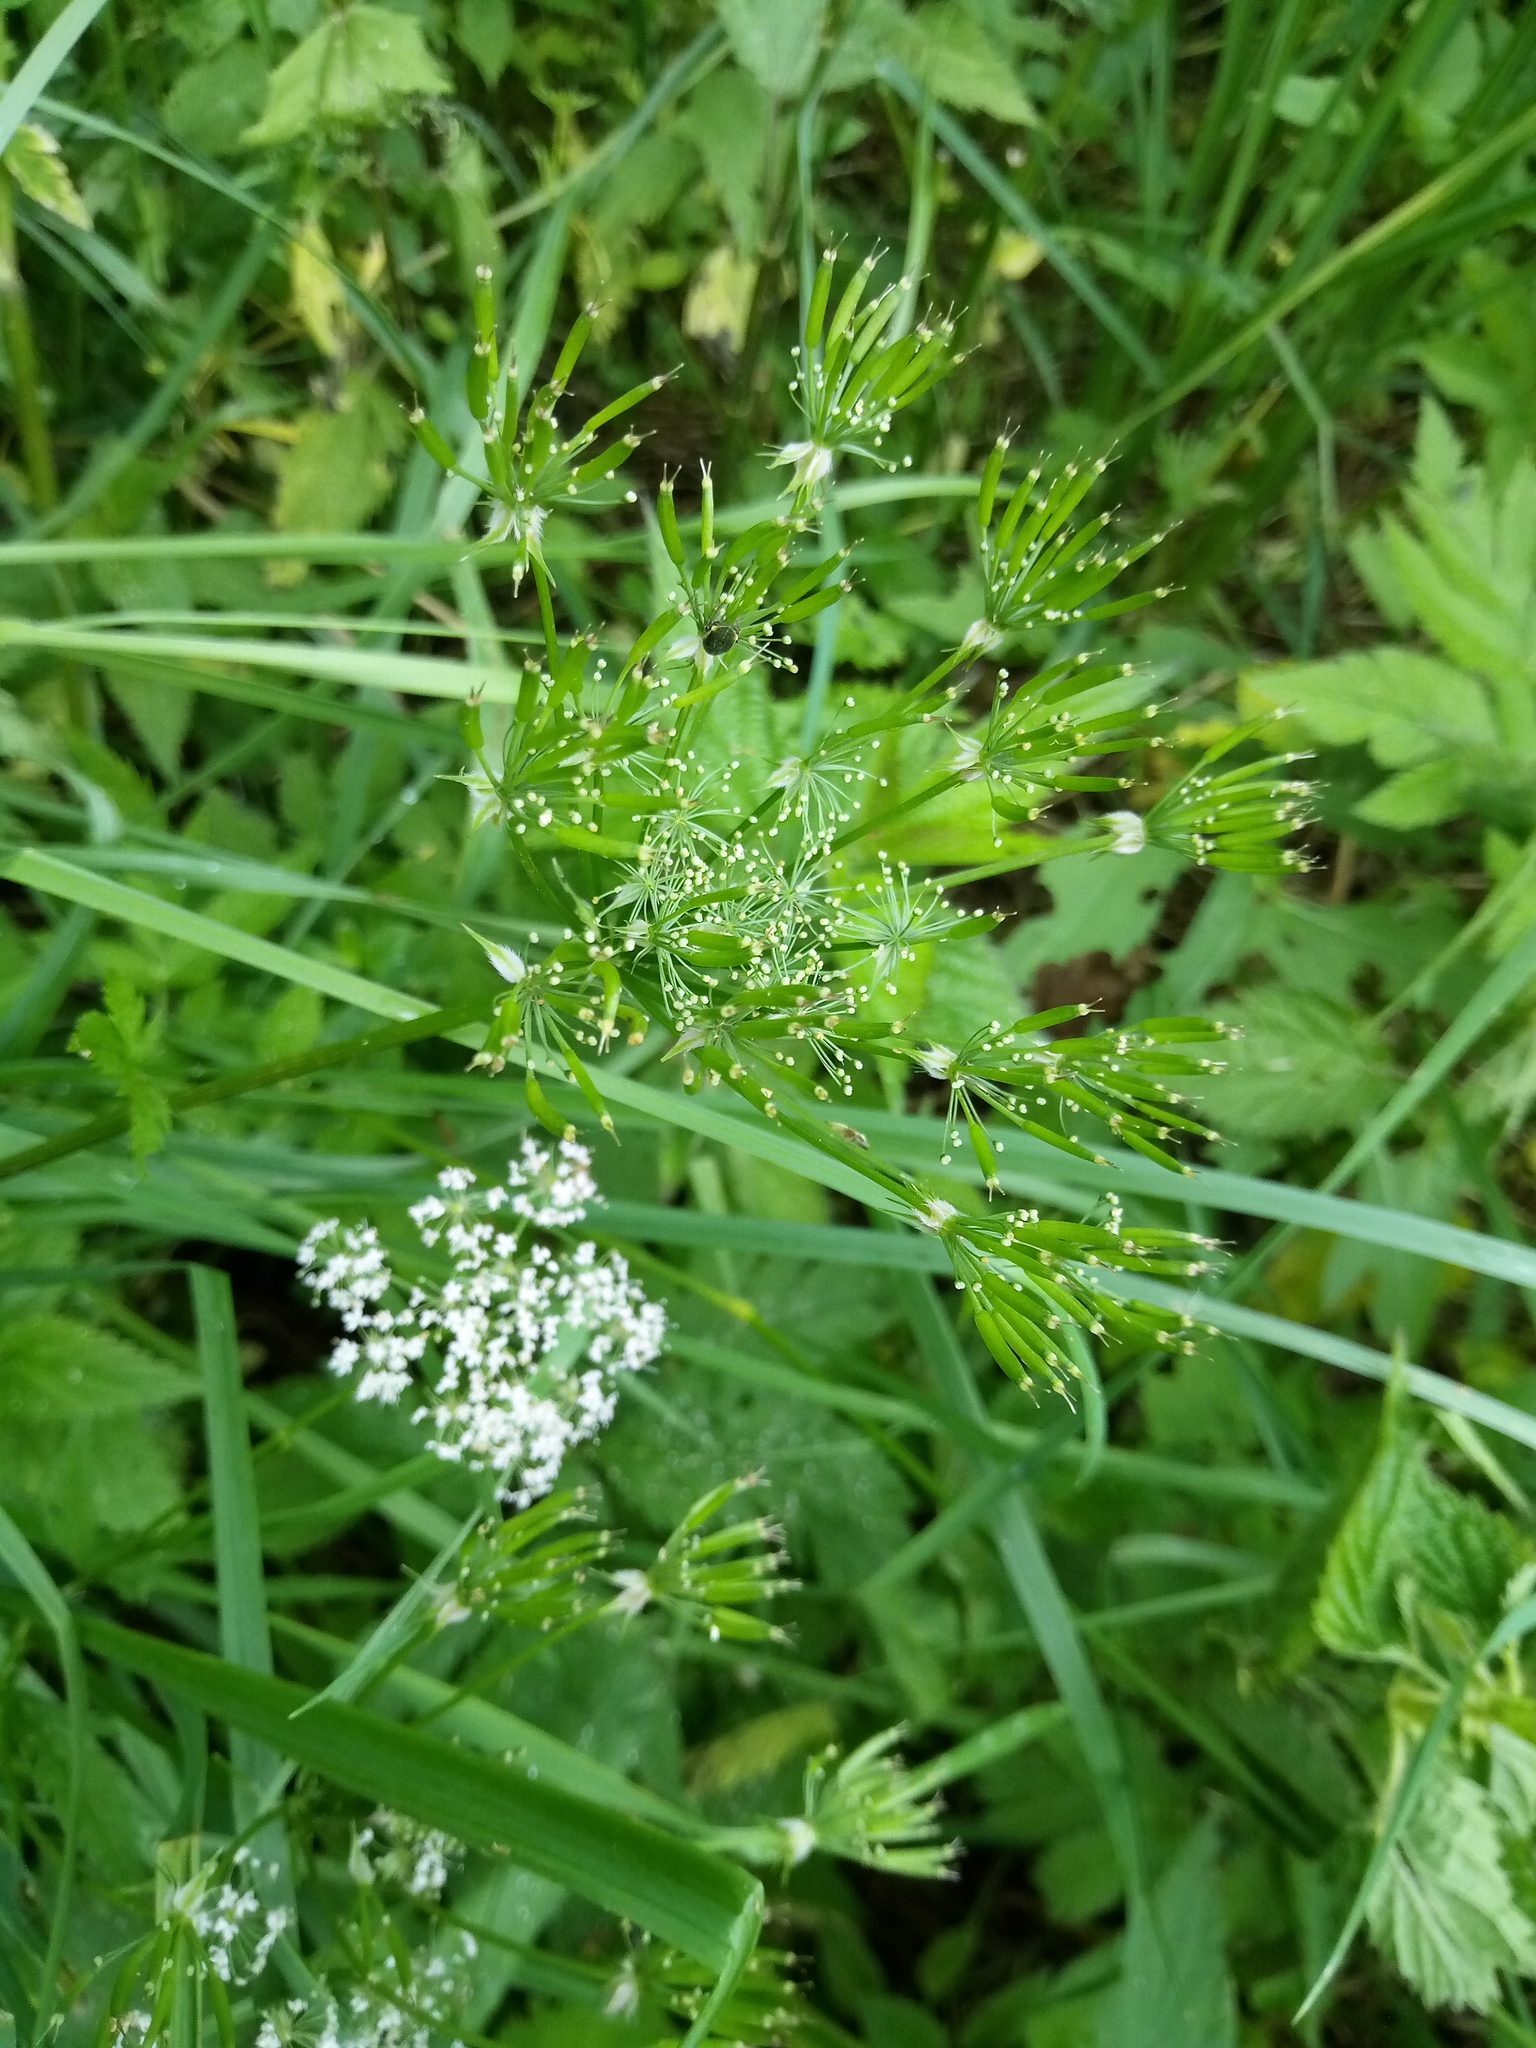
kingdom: Plantae
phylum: Tracheophyta
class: Magnoliopsida
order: Apiales
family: Apiaceae
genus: Chaerophyllum
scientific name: Chaerophyllum hirsutum
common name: Hairy chervil
